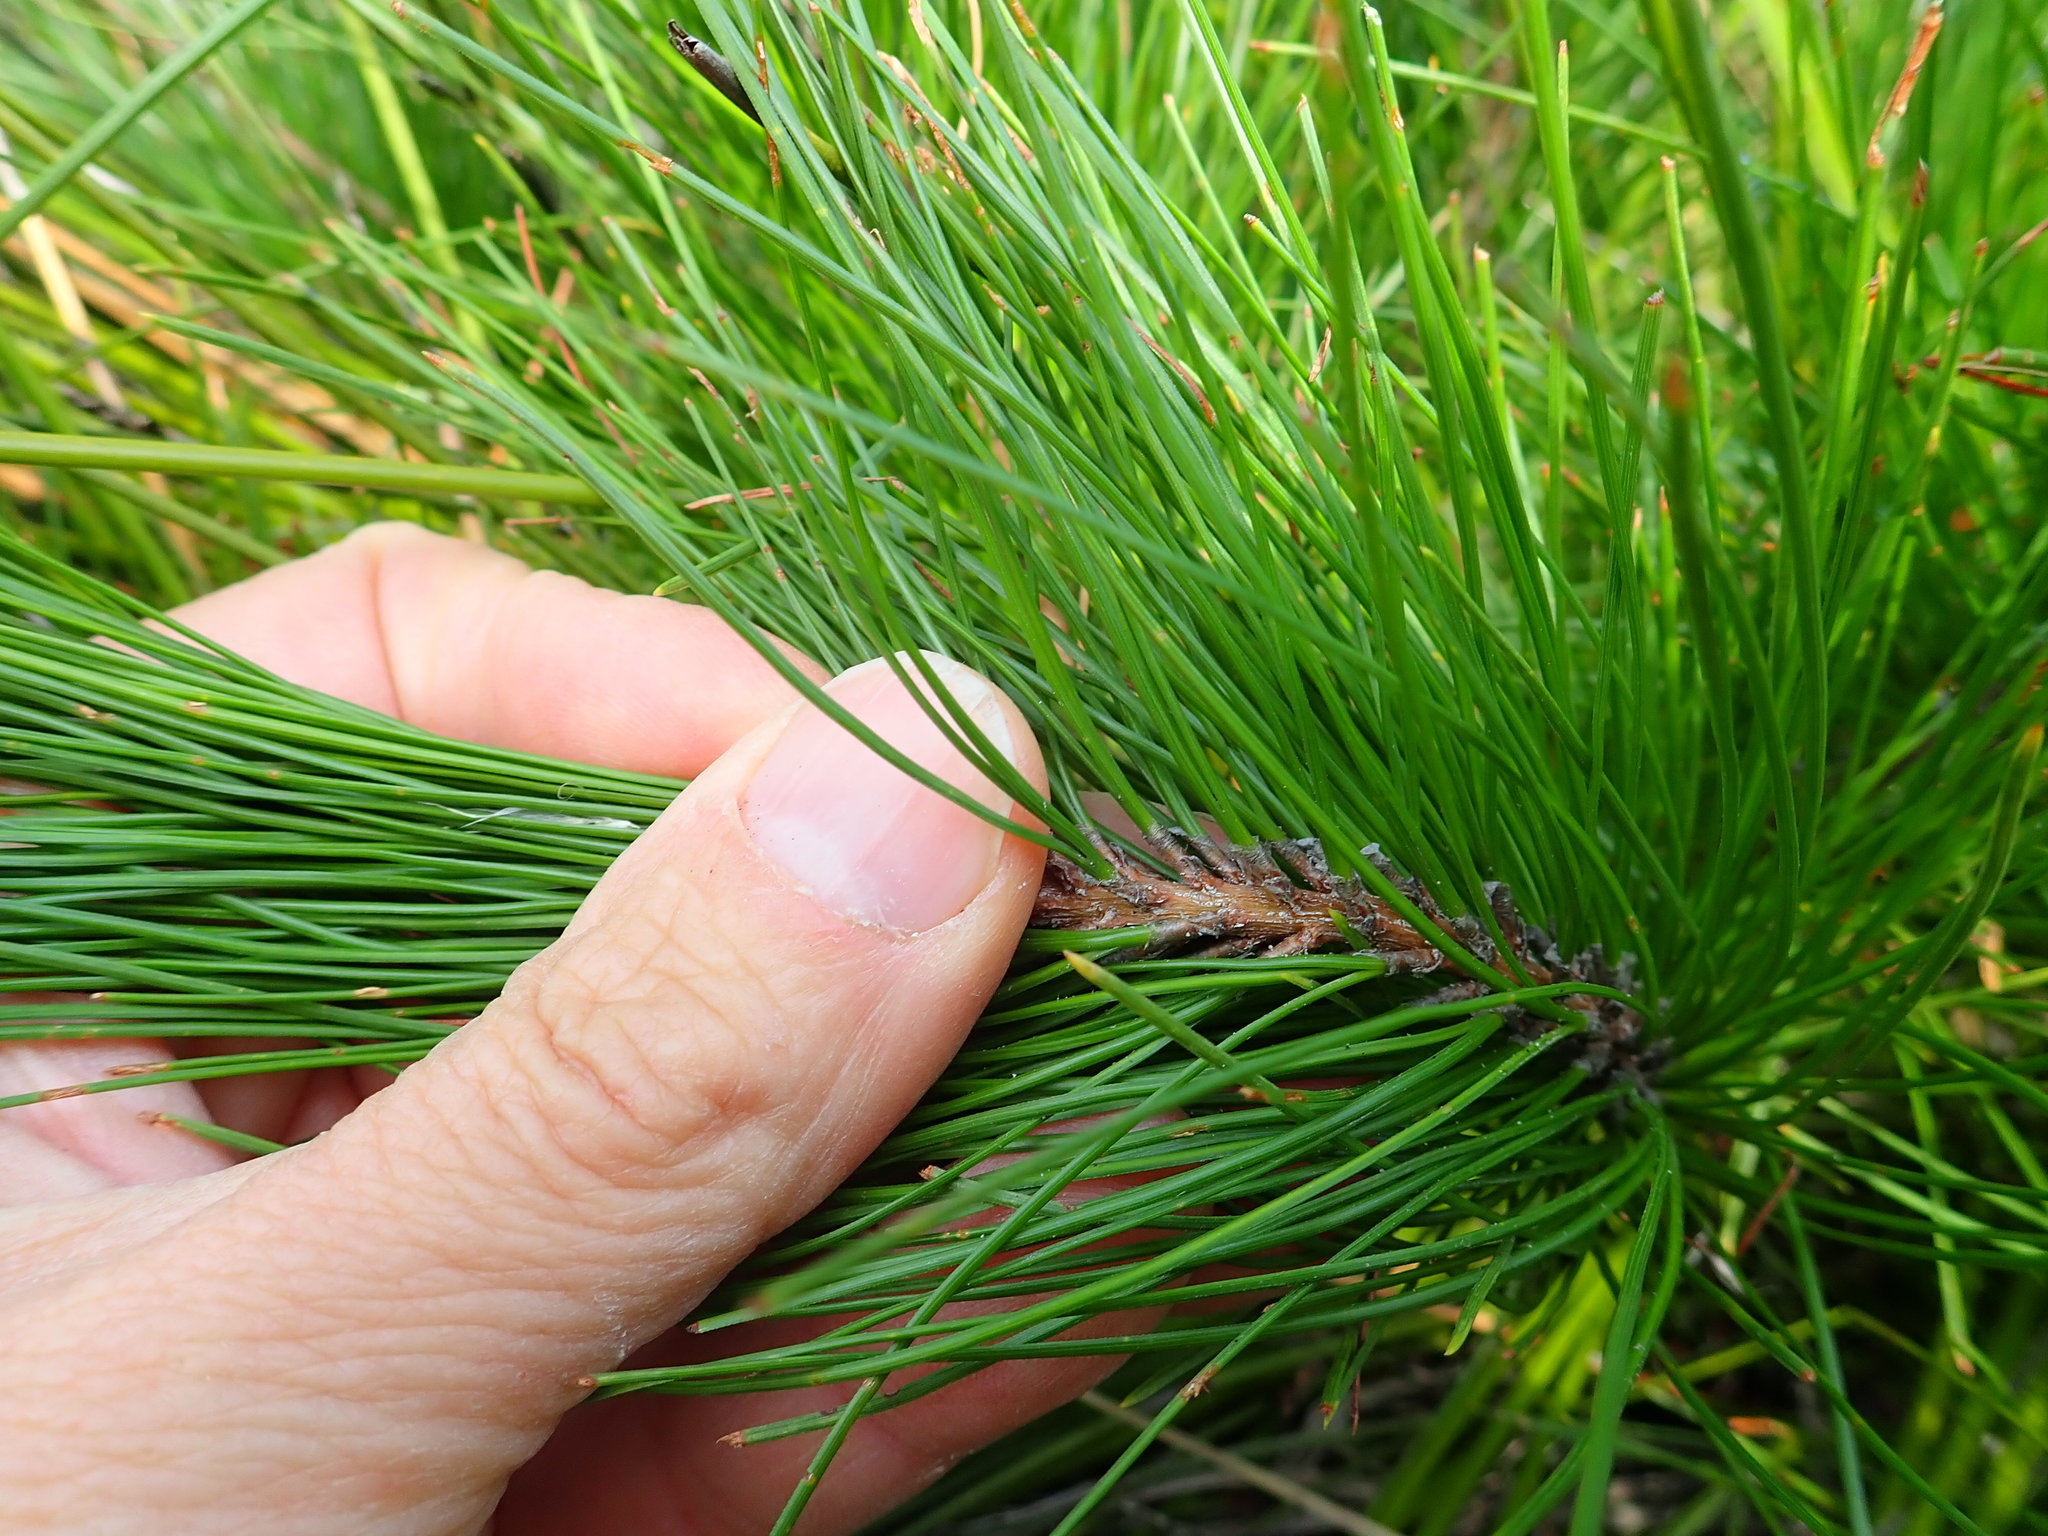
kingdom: Plantae
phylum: Tracheophyta
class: Pinopsida
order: Pinales
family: Pinaceae
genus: Pinus
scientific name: Pinus radiata
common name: Monterey pine
